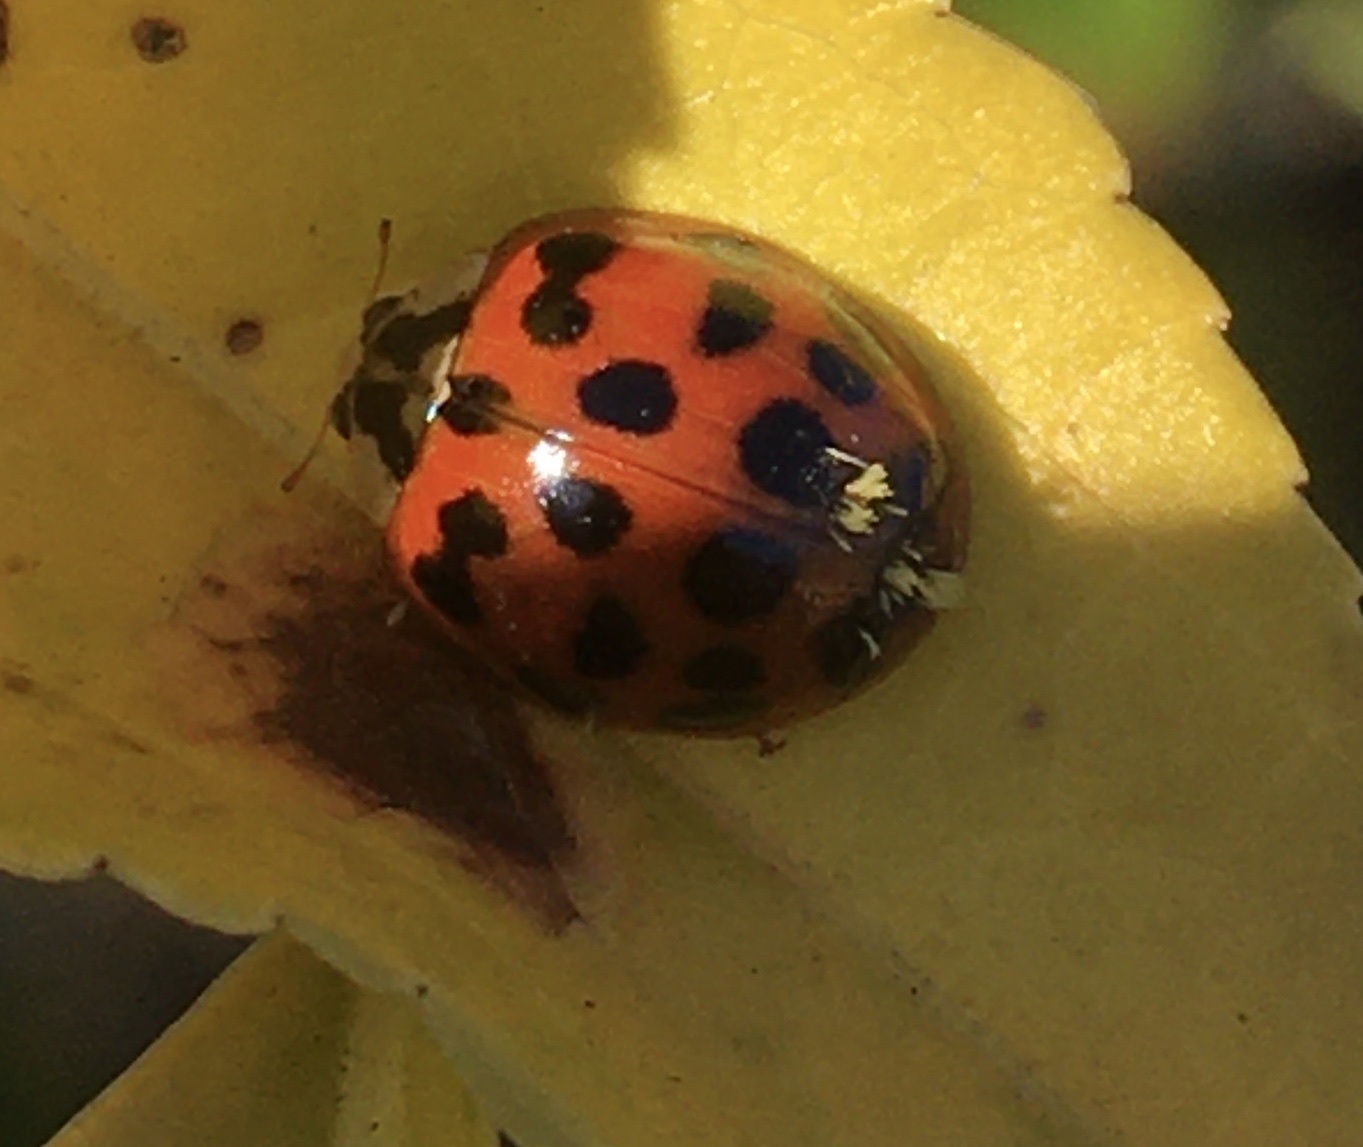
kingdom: Fungi
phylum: Ascomycota
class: Laboulbeniomycetes
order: Laboulbeniales
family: Laboulbeniaceae
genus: Hesperomyces
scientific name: Hesperomyces harmoniae
